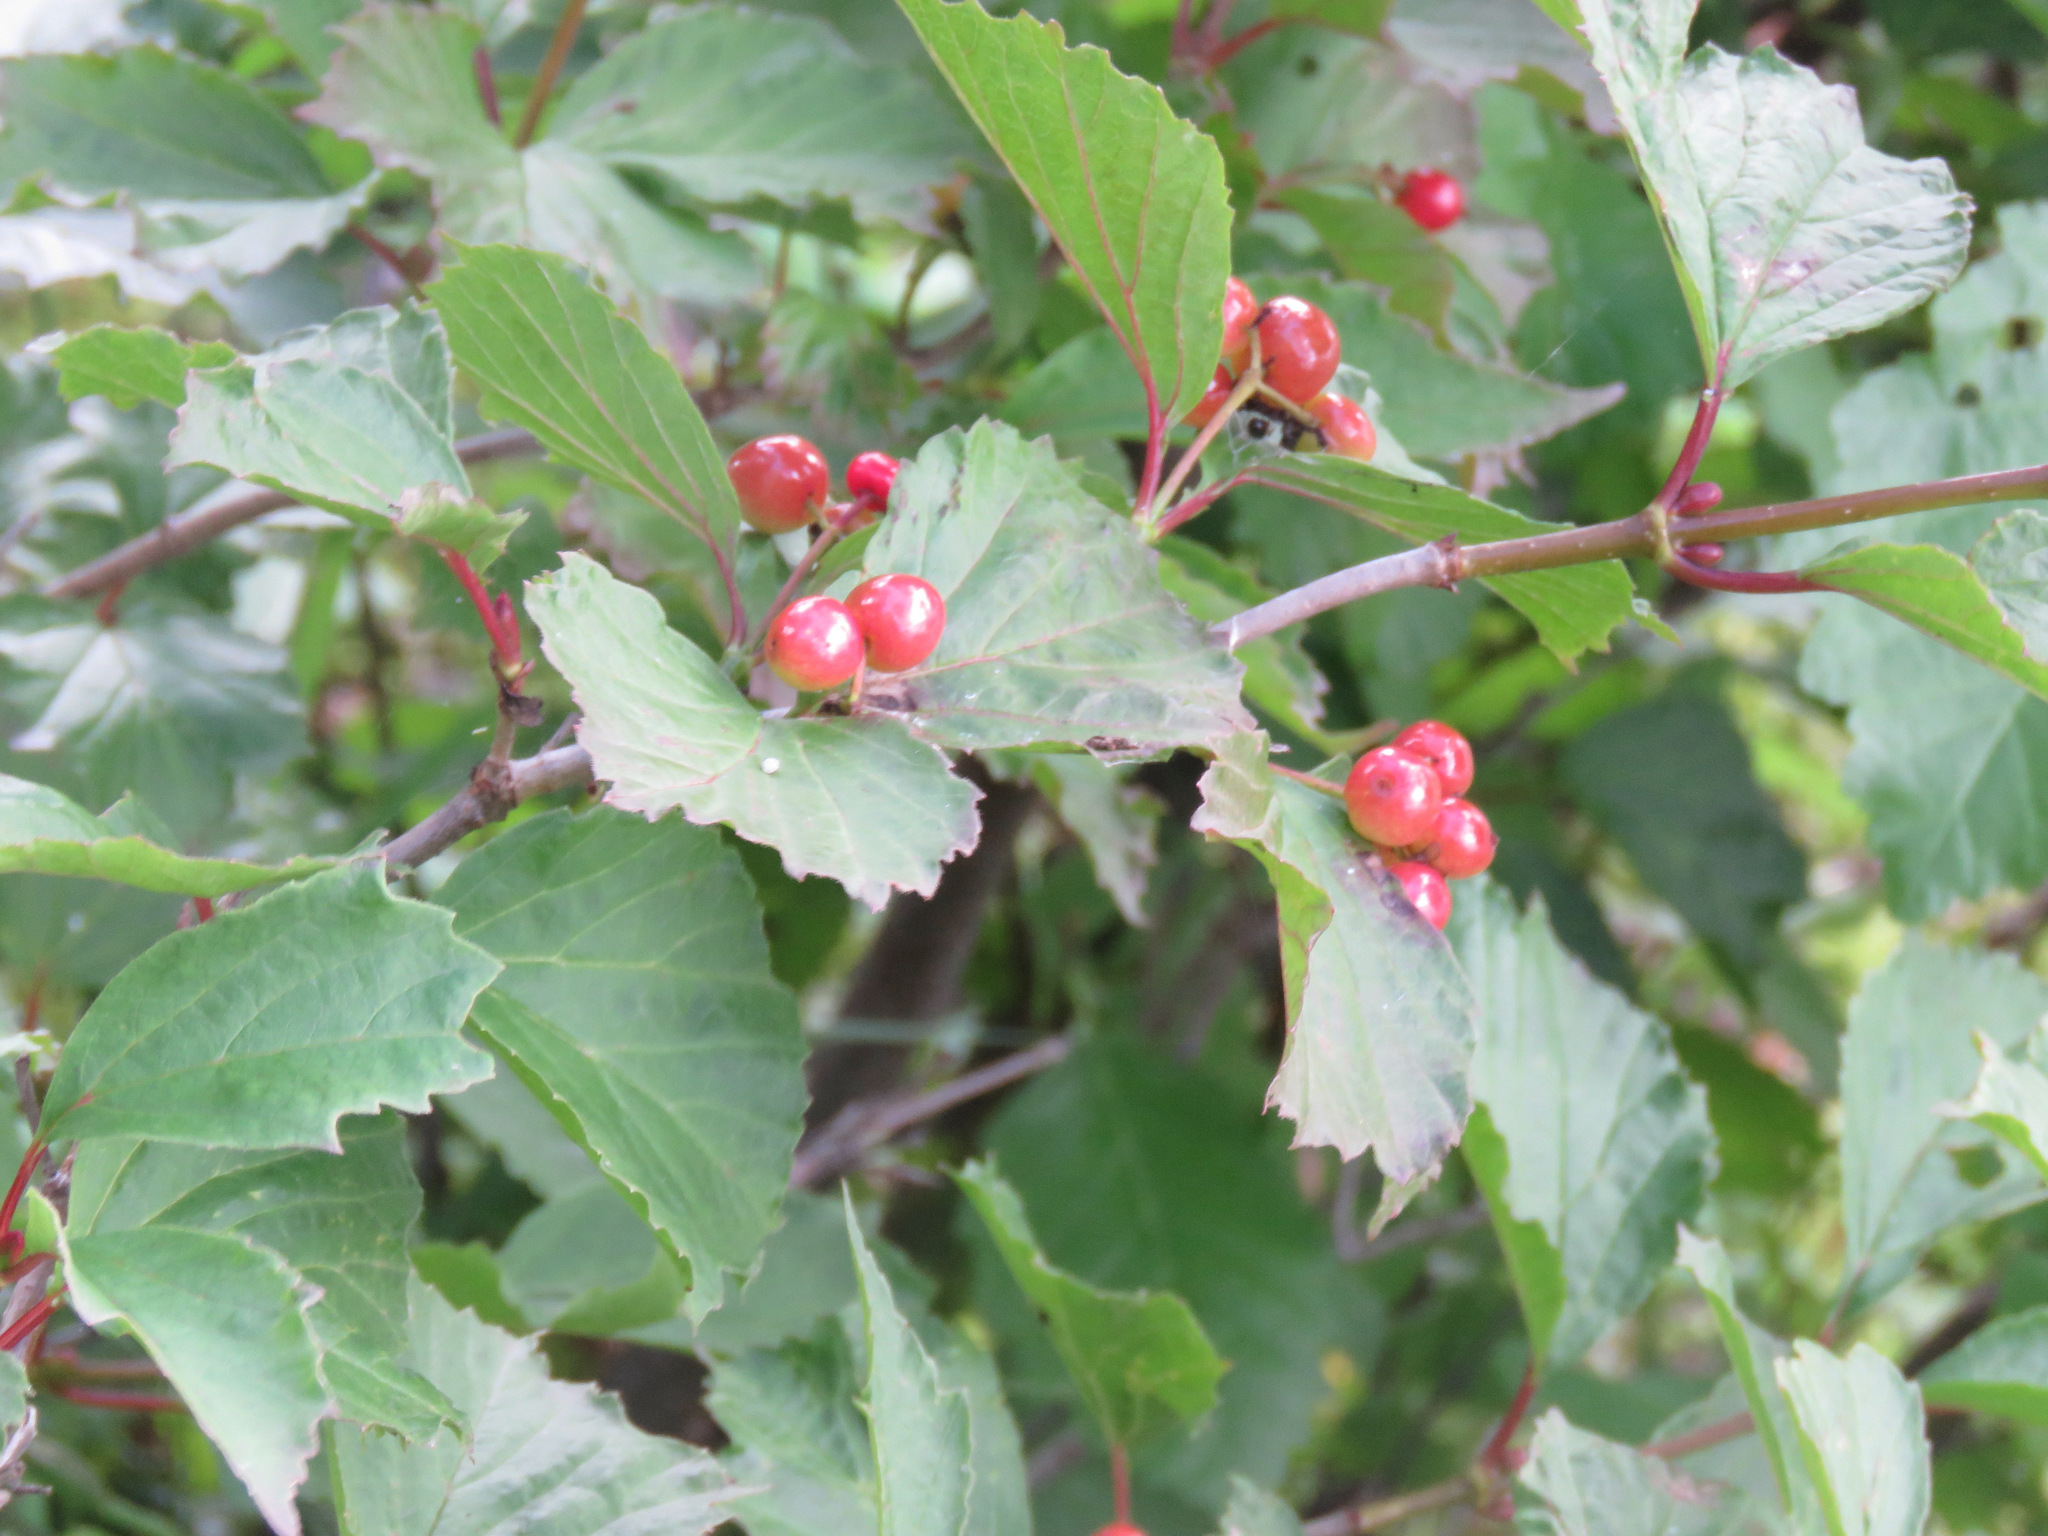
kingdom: Plantae
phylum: Tracheophyta
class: Magnoliopsida
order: Dipsacales
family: Viburnaceae
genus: Viburnum
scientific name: Viburnum edule
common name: Mooseberry
